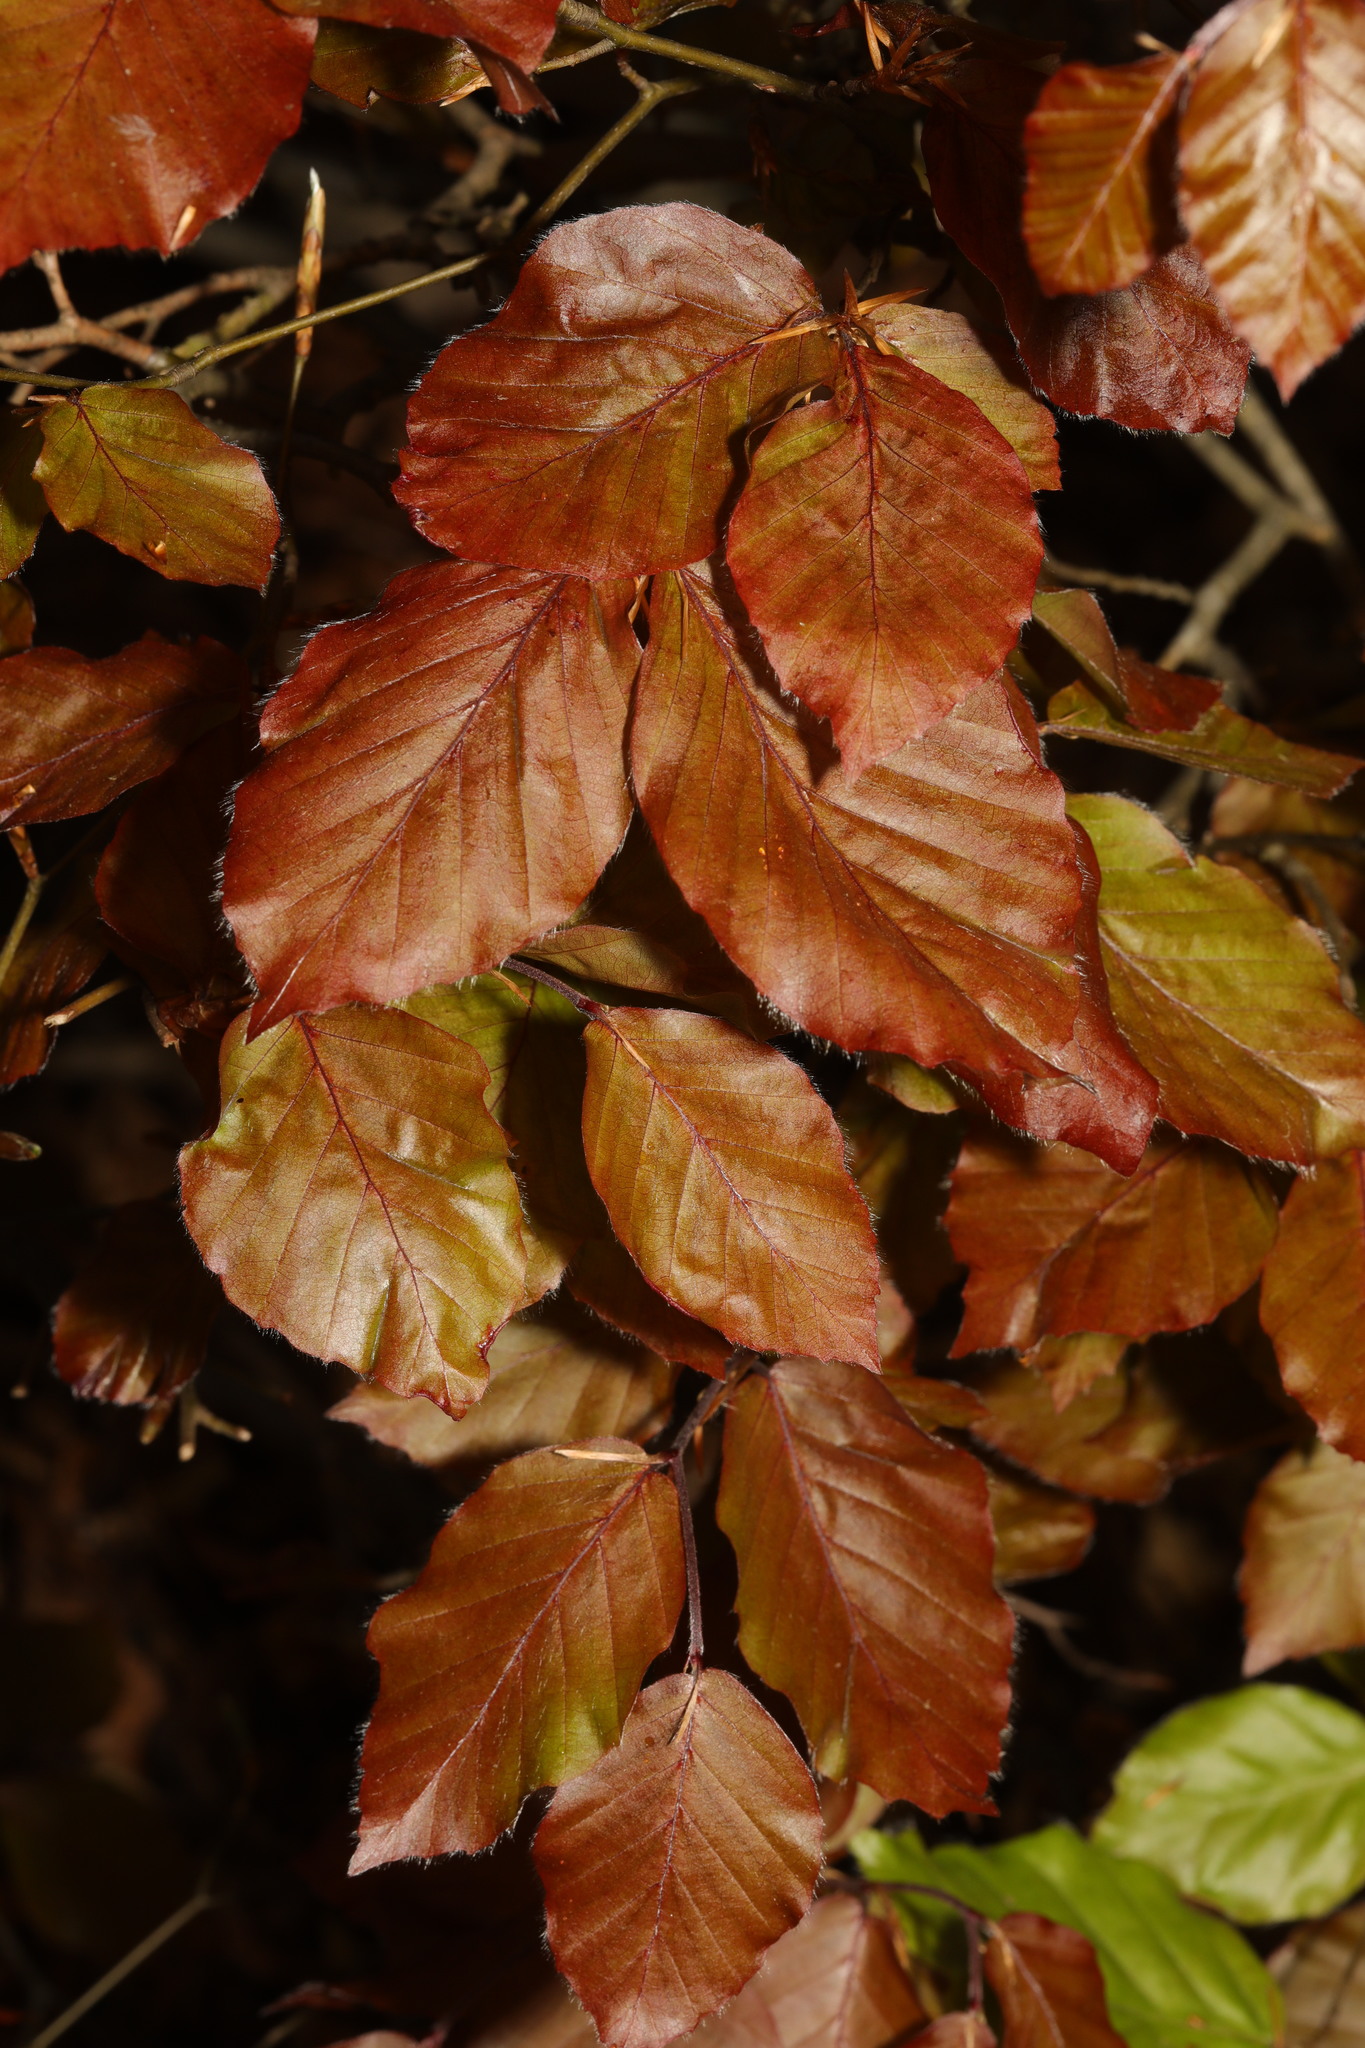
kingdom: Plantae
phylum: Tracheophyta
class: Magnoliopsida
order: Fagales
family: Fagaceae
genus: Fagus
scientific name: Fagus sylvatica
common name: Beech
